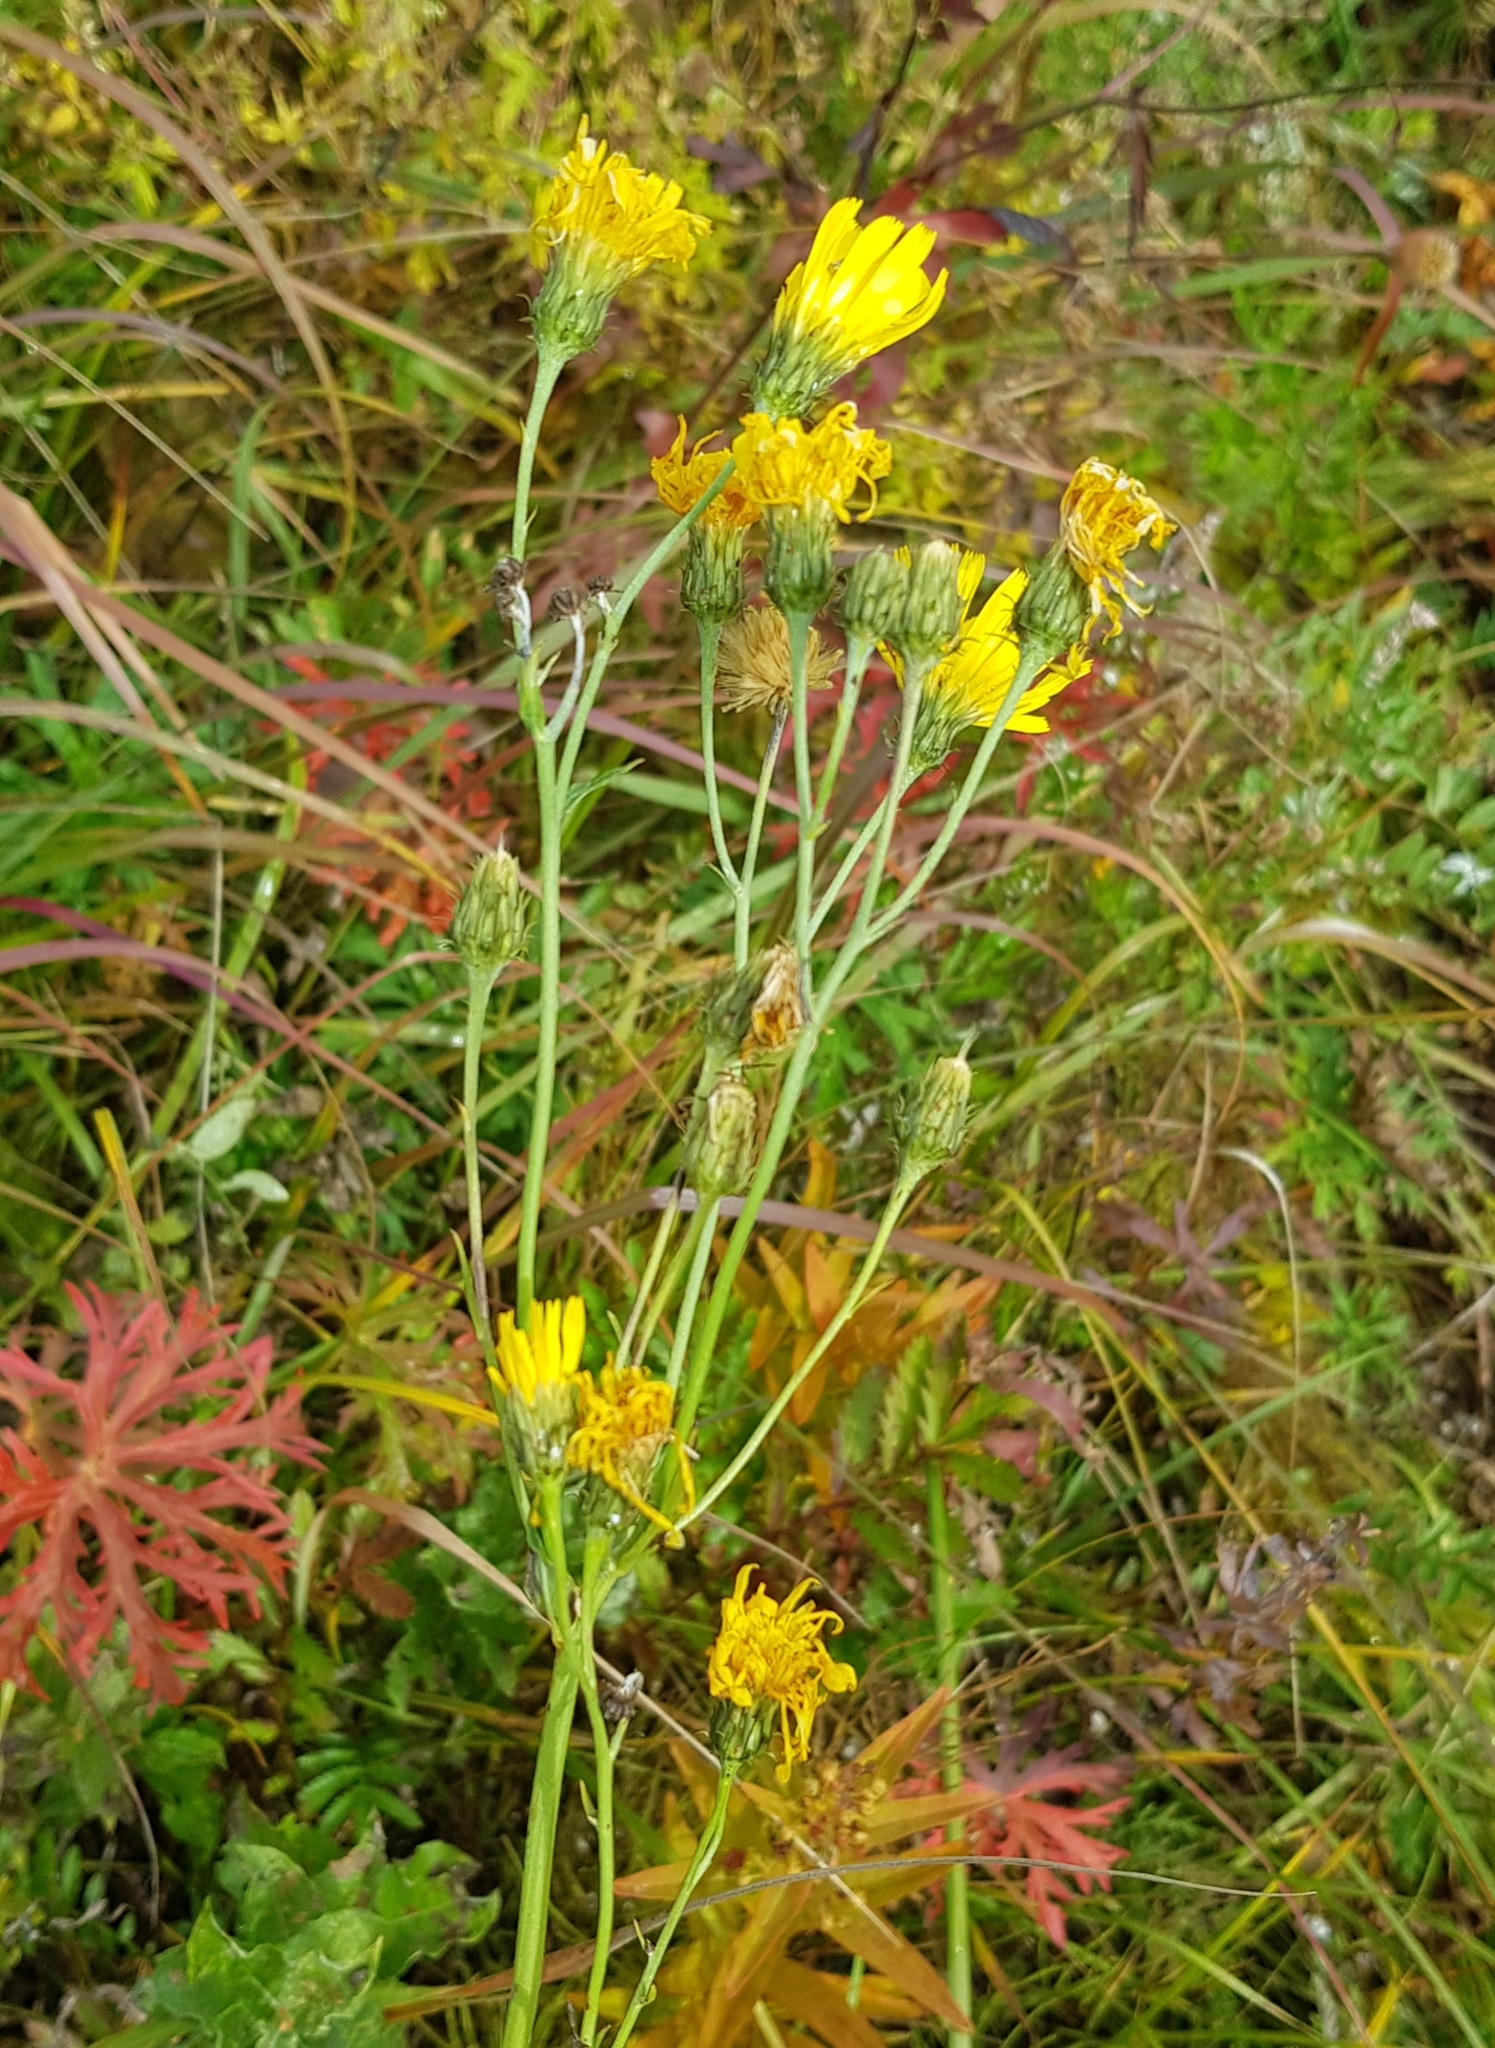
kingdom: Plantae
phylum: Tracheophyta
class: Magnoliopsida
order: Asterales
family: Asteraceae
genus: Hieracium
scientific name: Hieracium umbellatum
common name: Northern hawkweed
